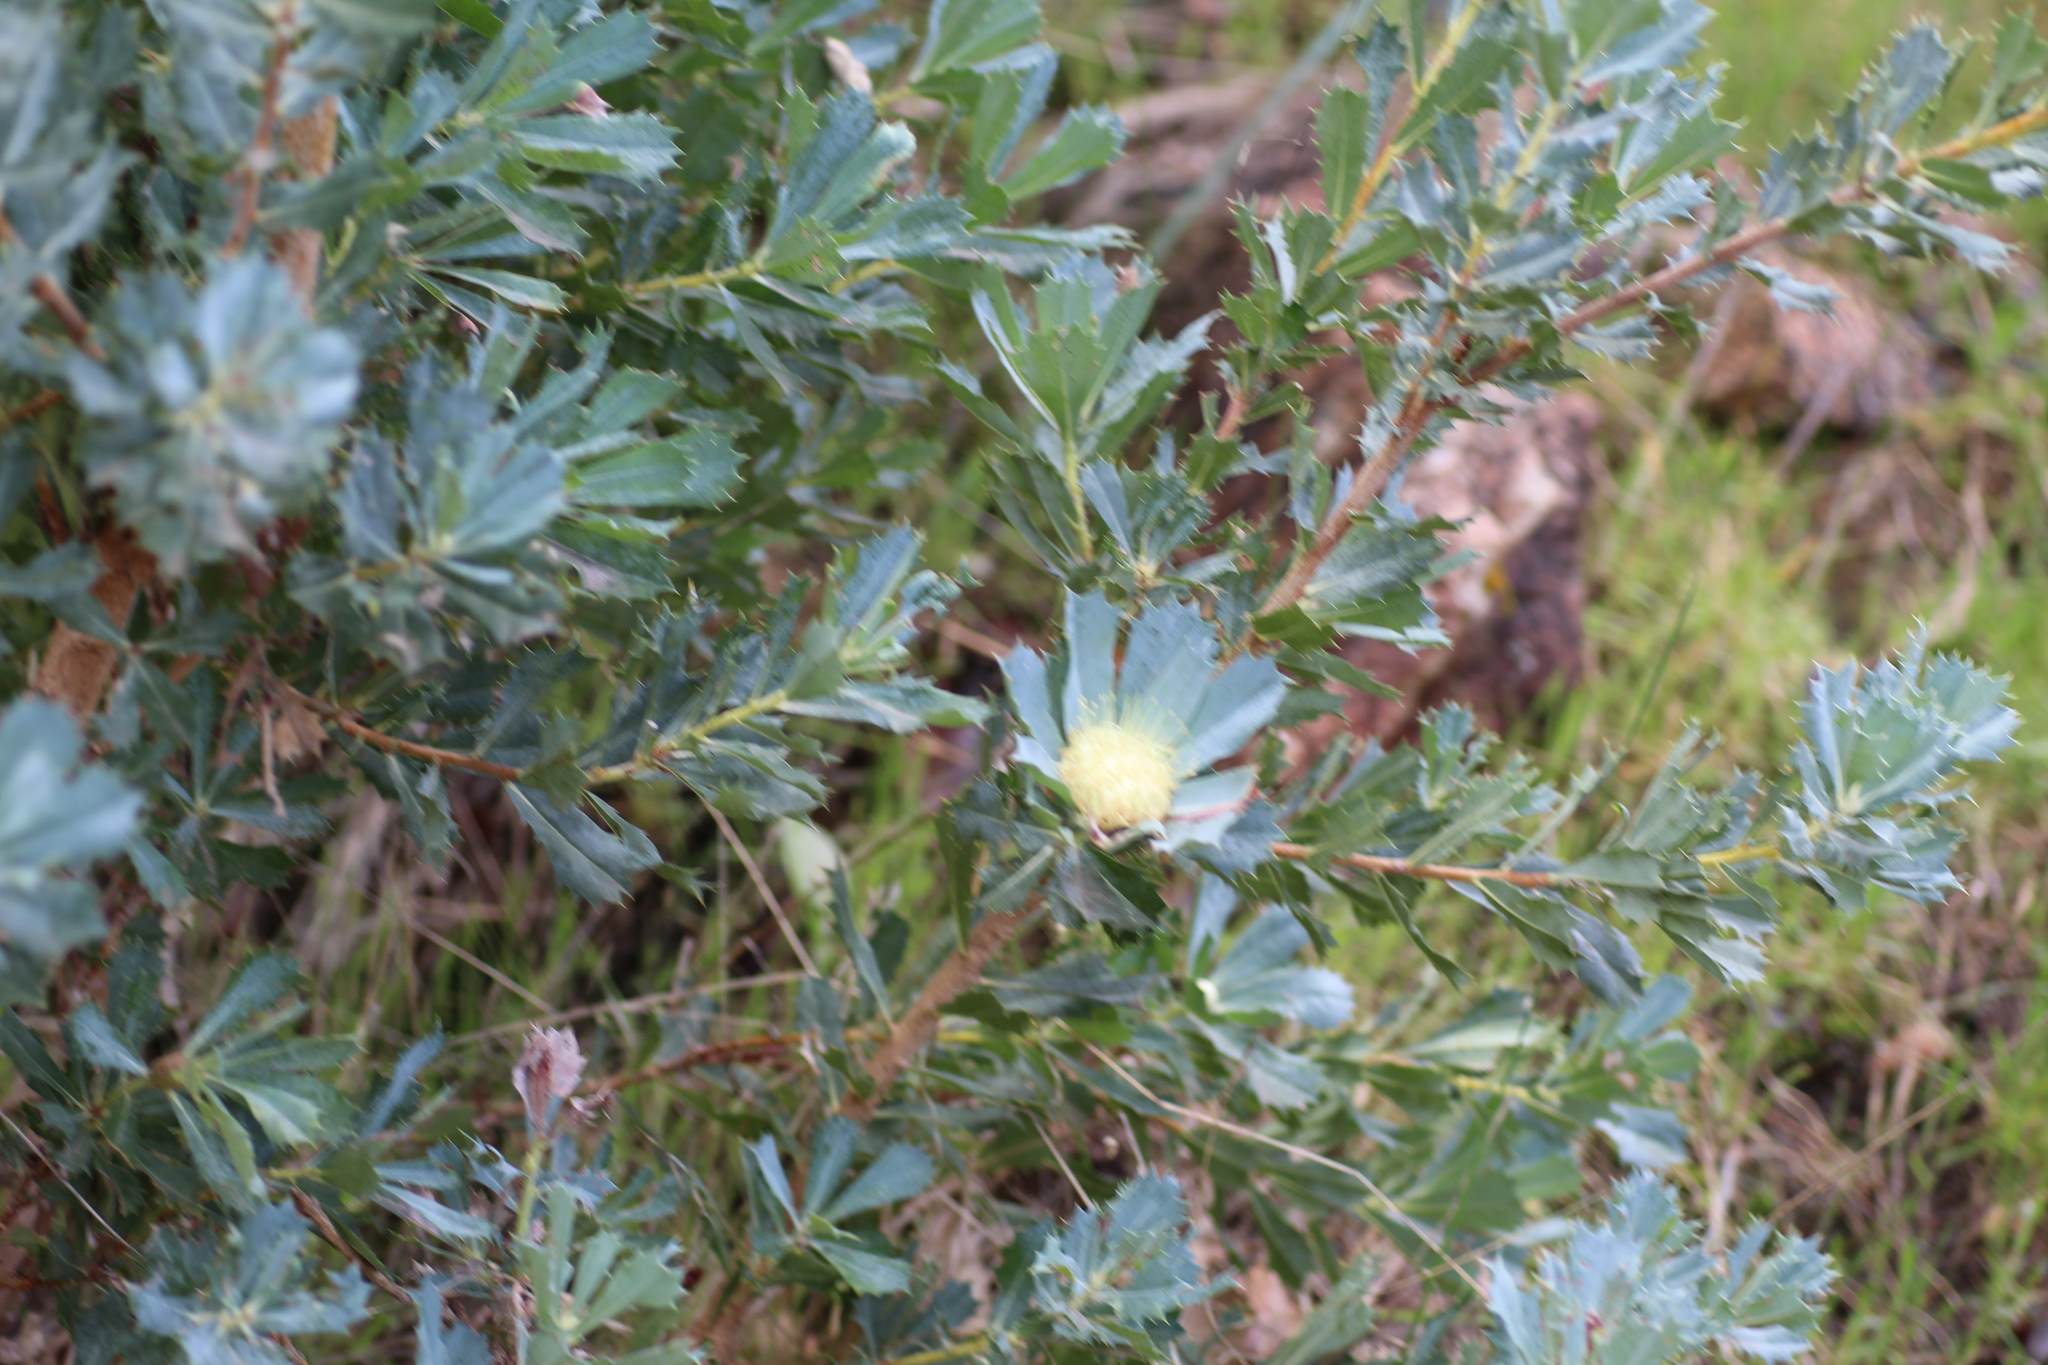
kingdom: Plantae
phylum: Tracheophyta
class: Magnoliopsida
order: Proteales
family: Proteaceae
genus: Banksia
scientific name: Banksia sessilis
